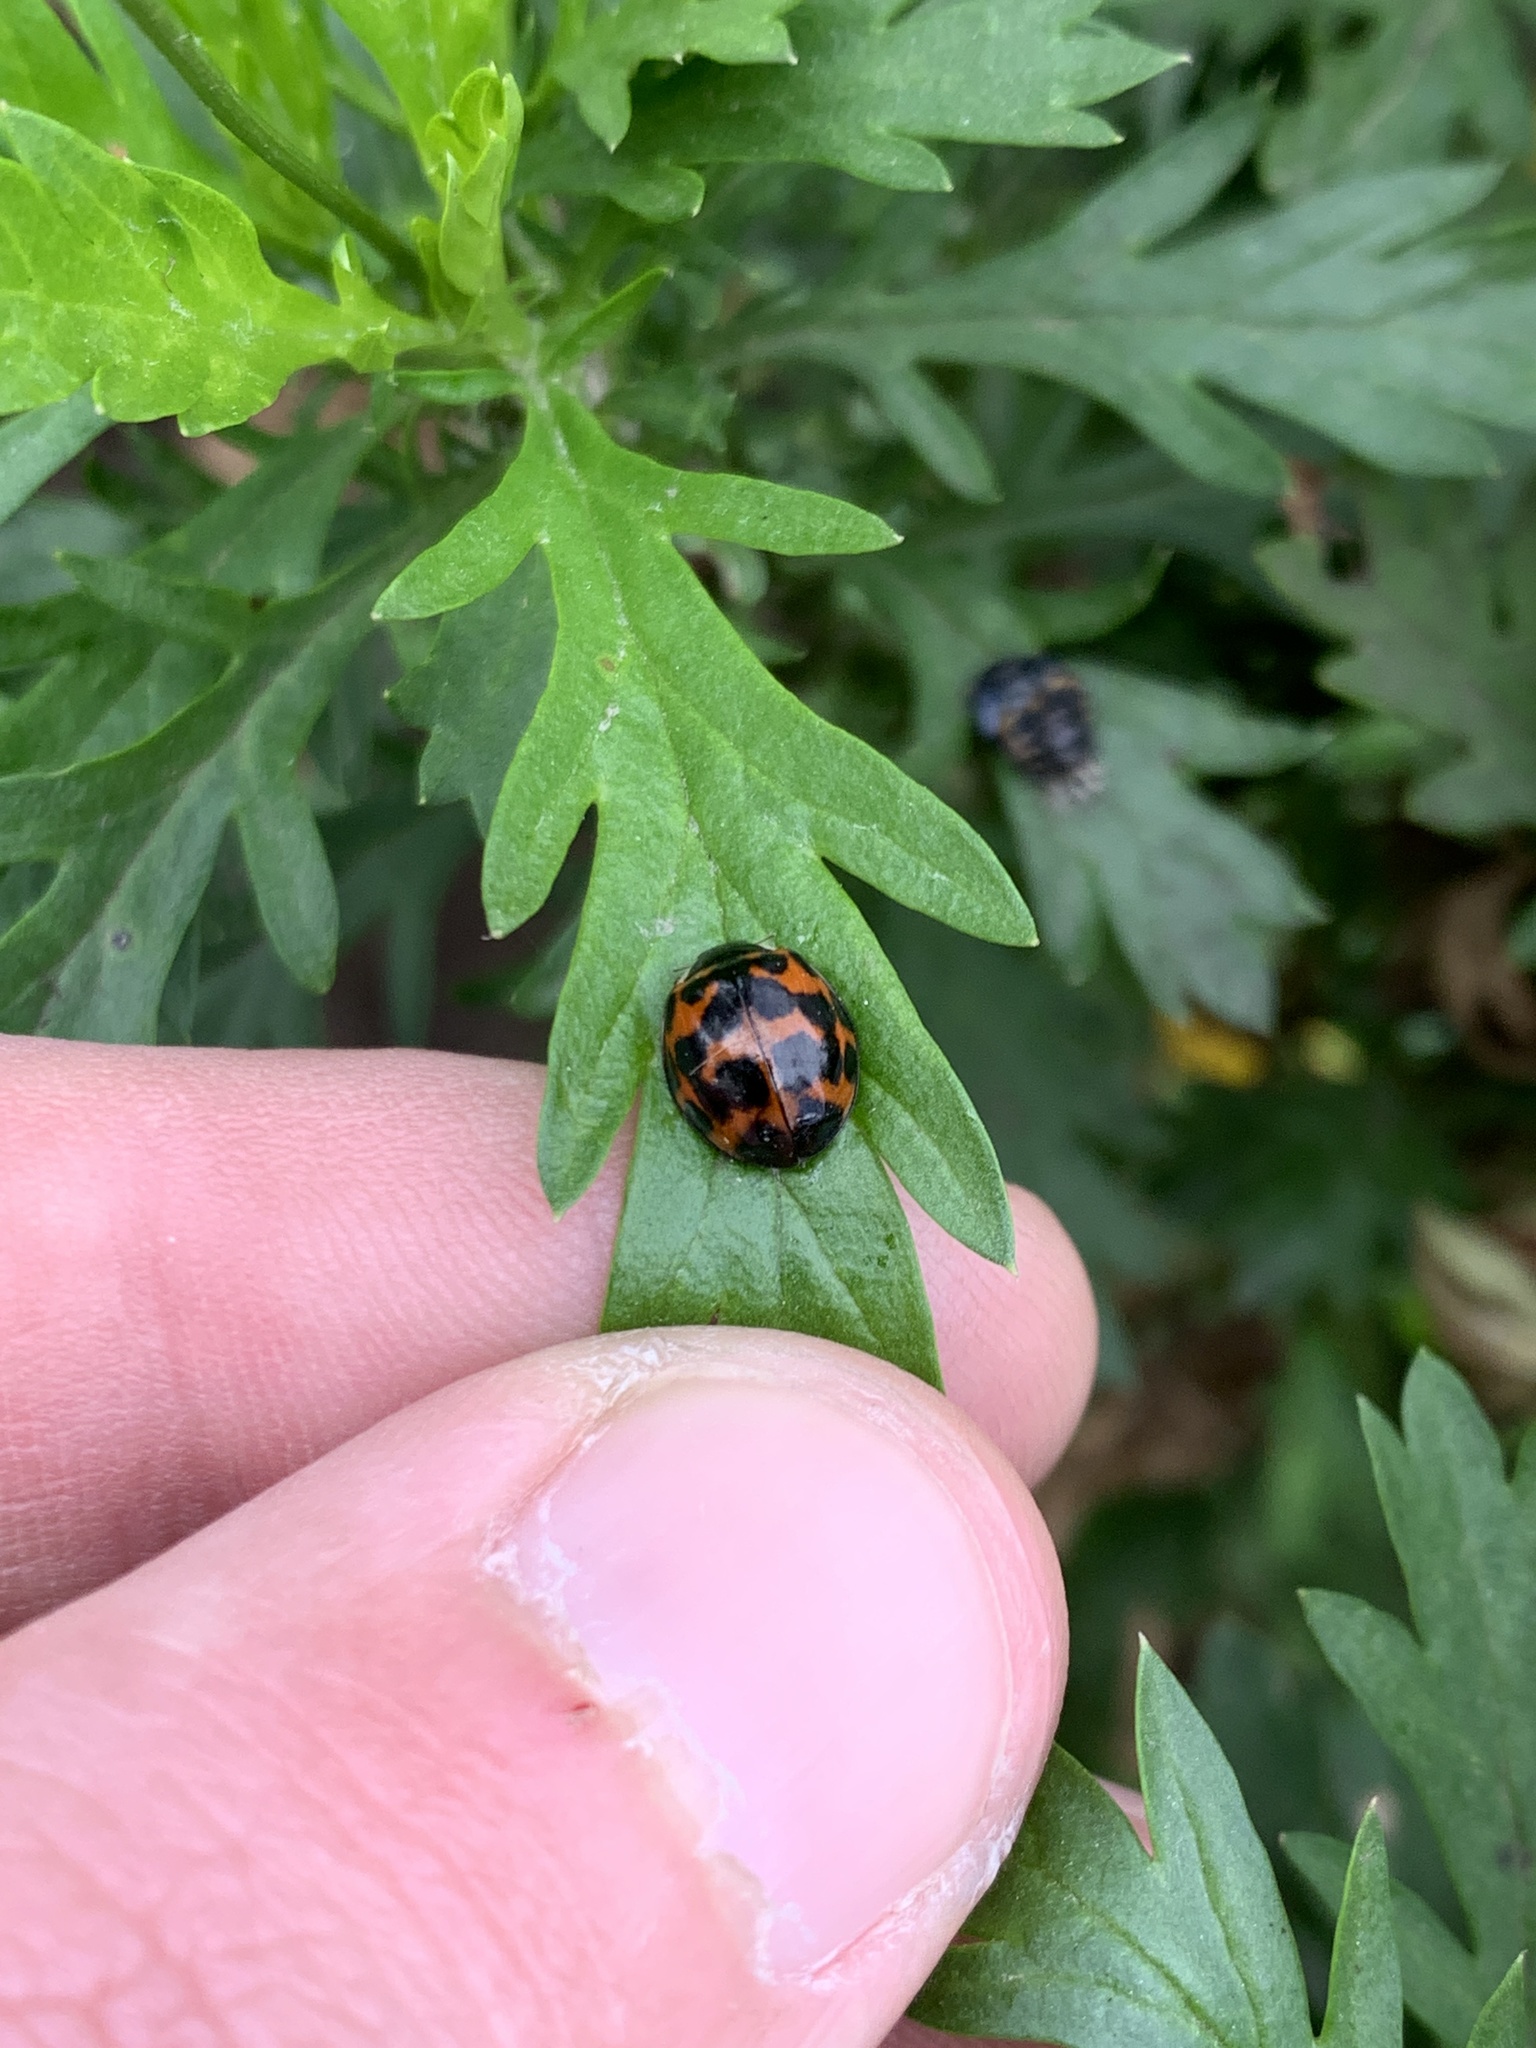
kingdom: Animalia
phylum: Arthropoda
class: Insecta
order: Coleoptera
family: Coccinellidae
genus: Harmonia
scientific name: Harmonia axyridis
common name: Harlequin ladybird
